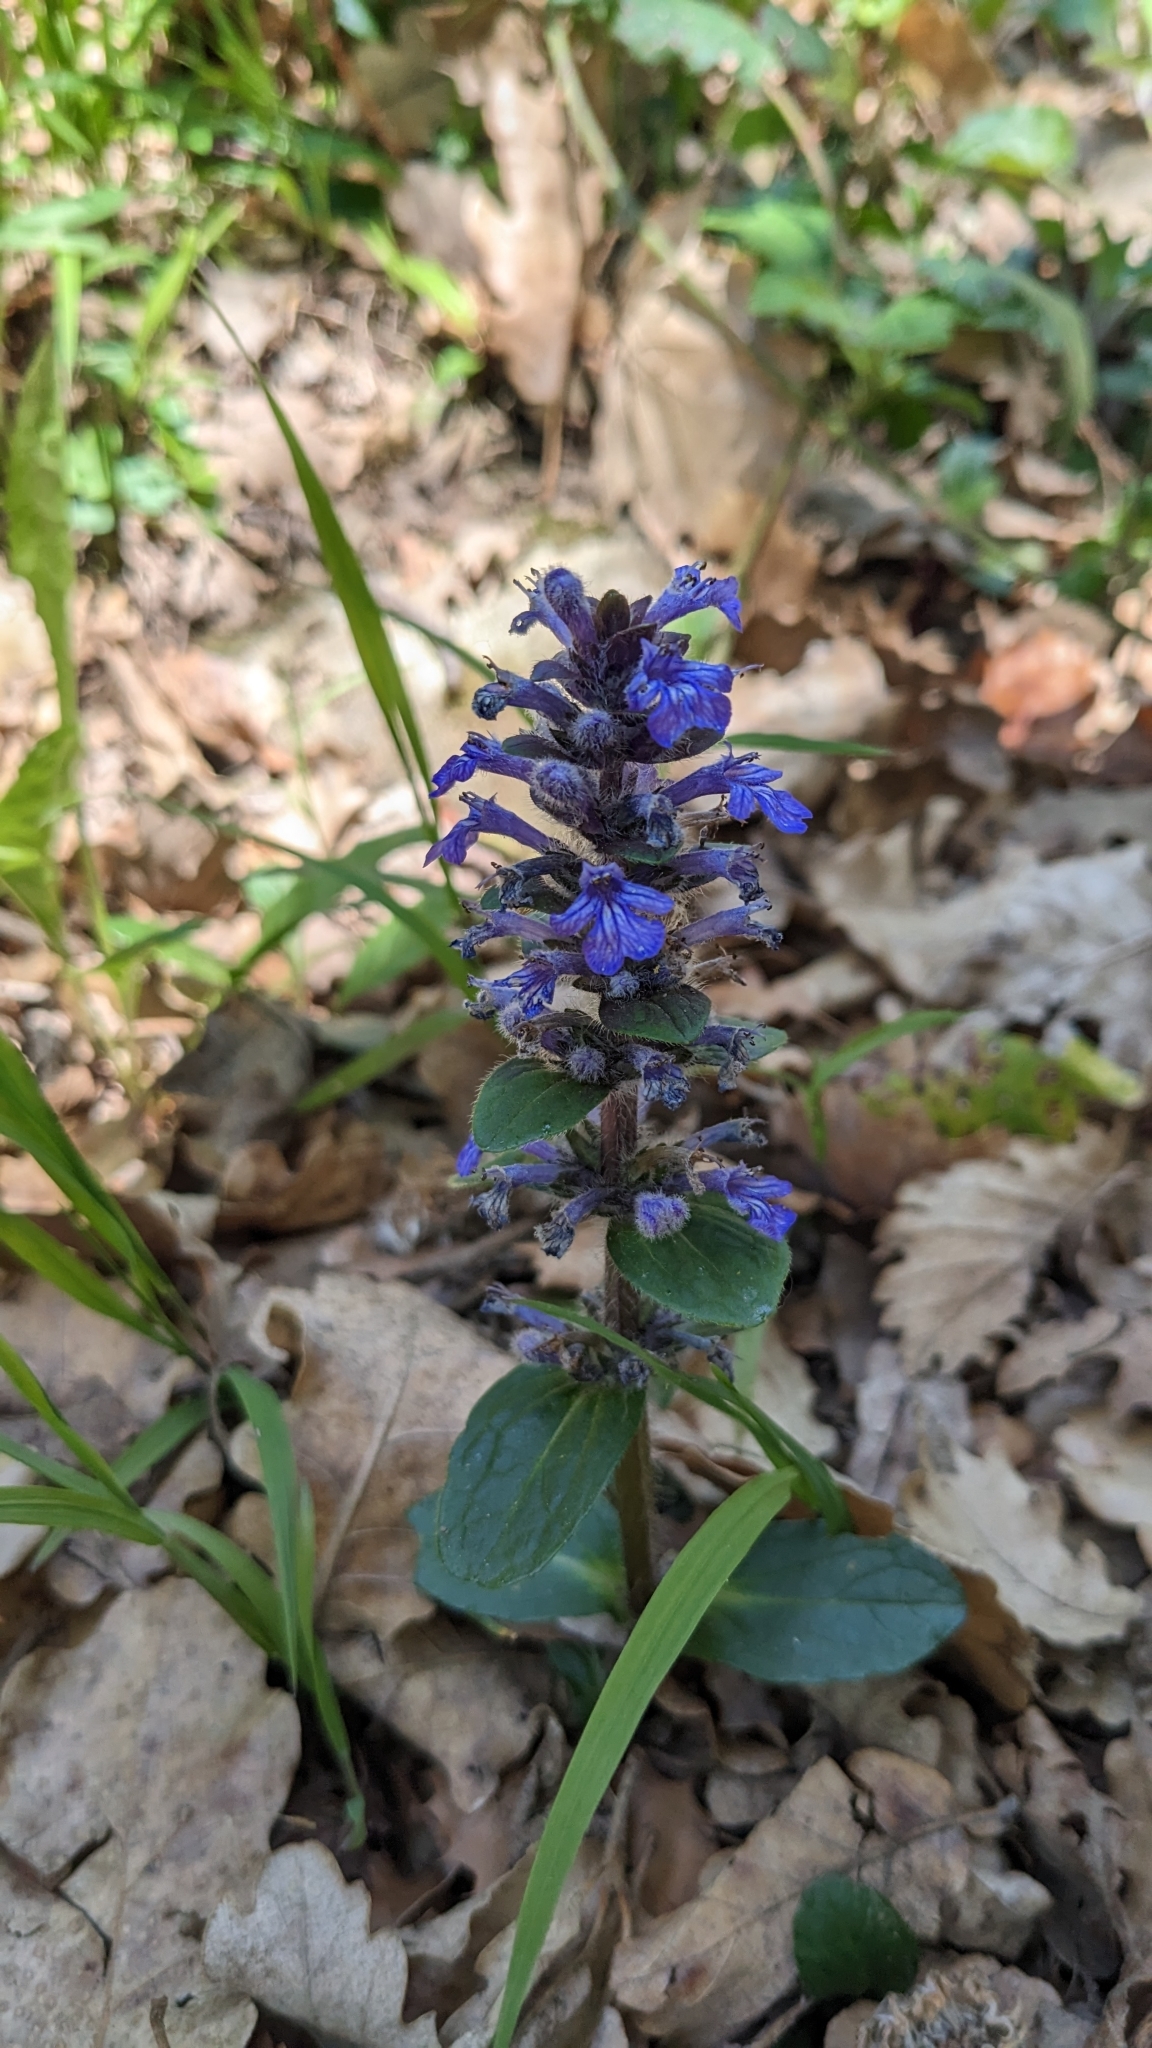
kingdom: Plantae
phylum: Tracheophyta
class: Magnoliopsida
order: Lamiales
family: Lamiaceae
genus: Ajuga
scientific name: Ajuga reptans
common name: Bugle
